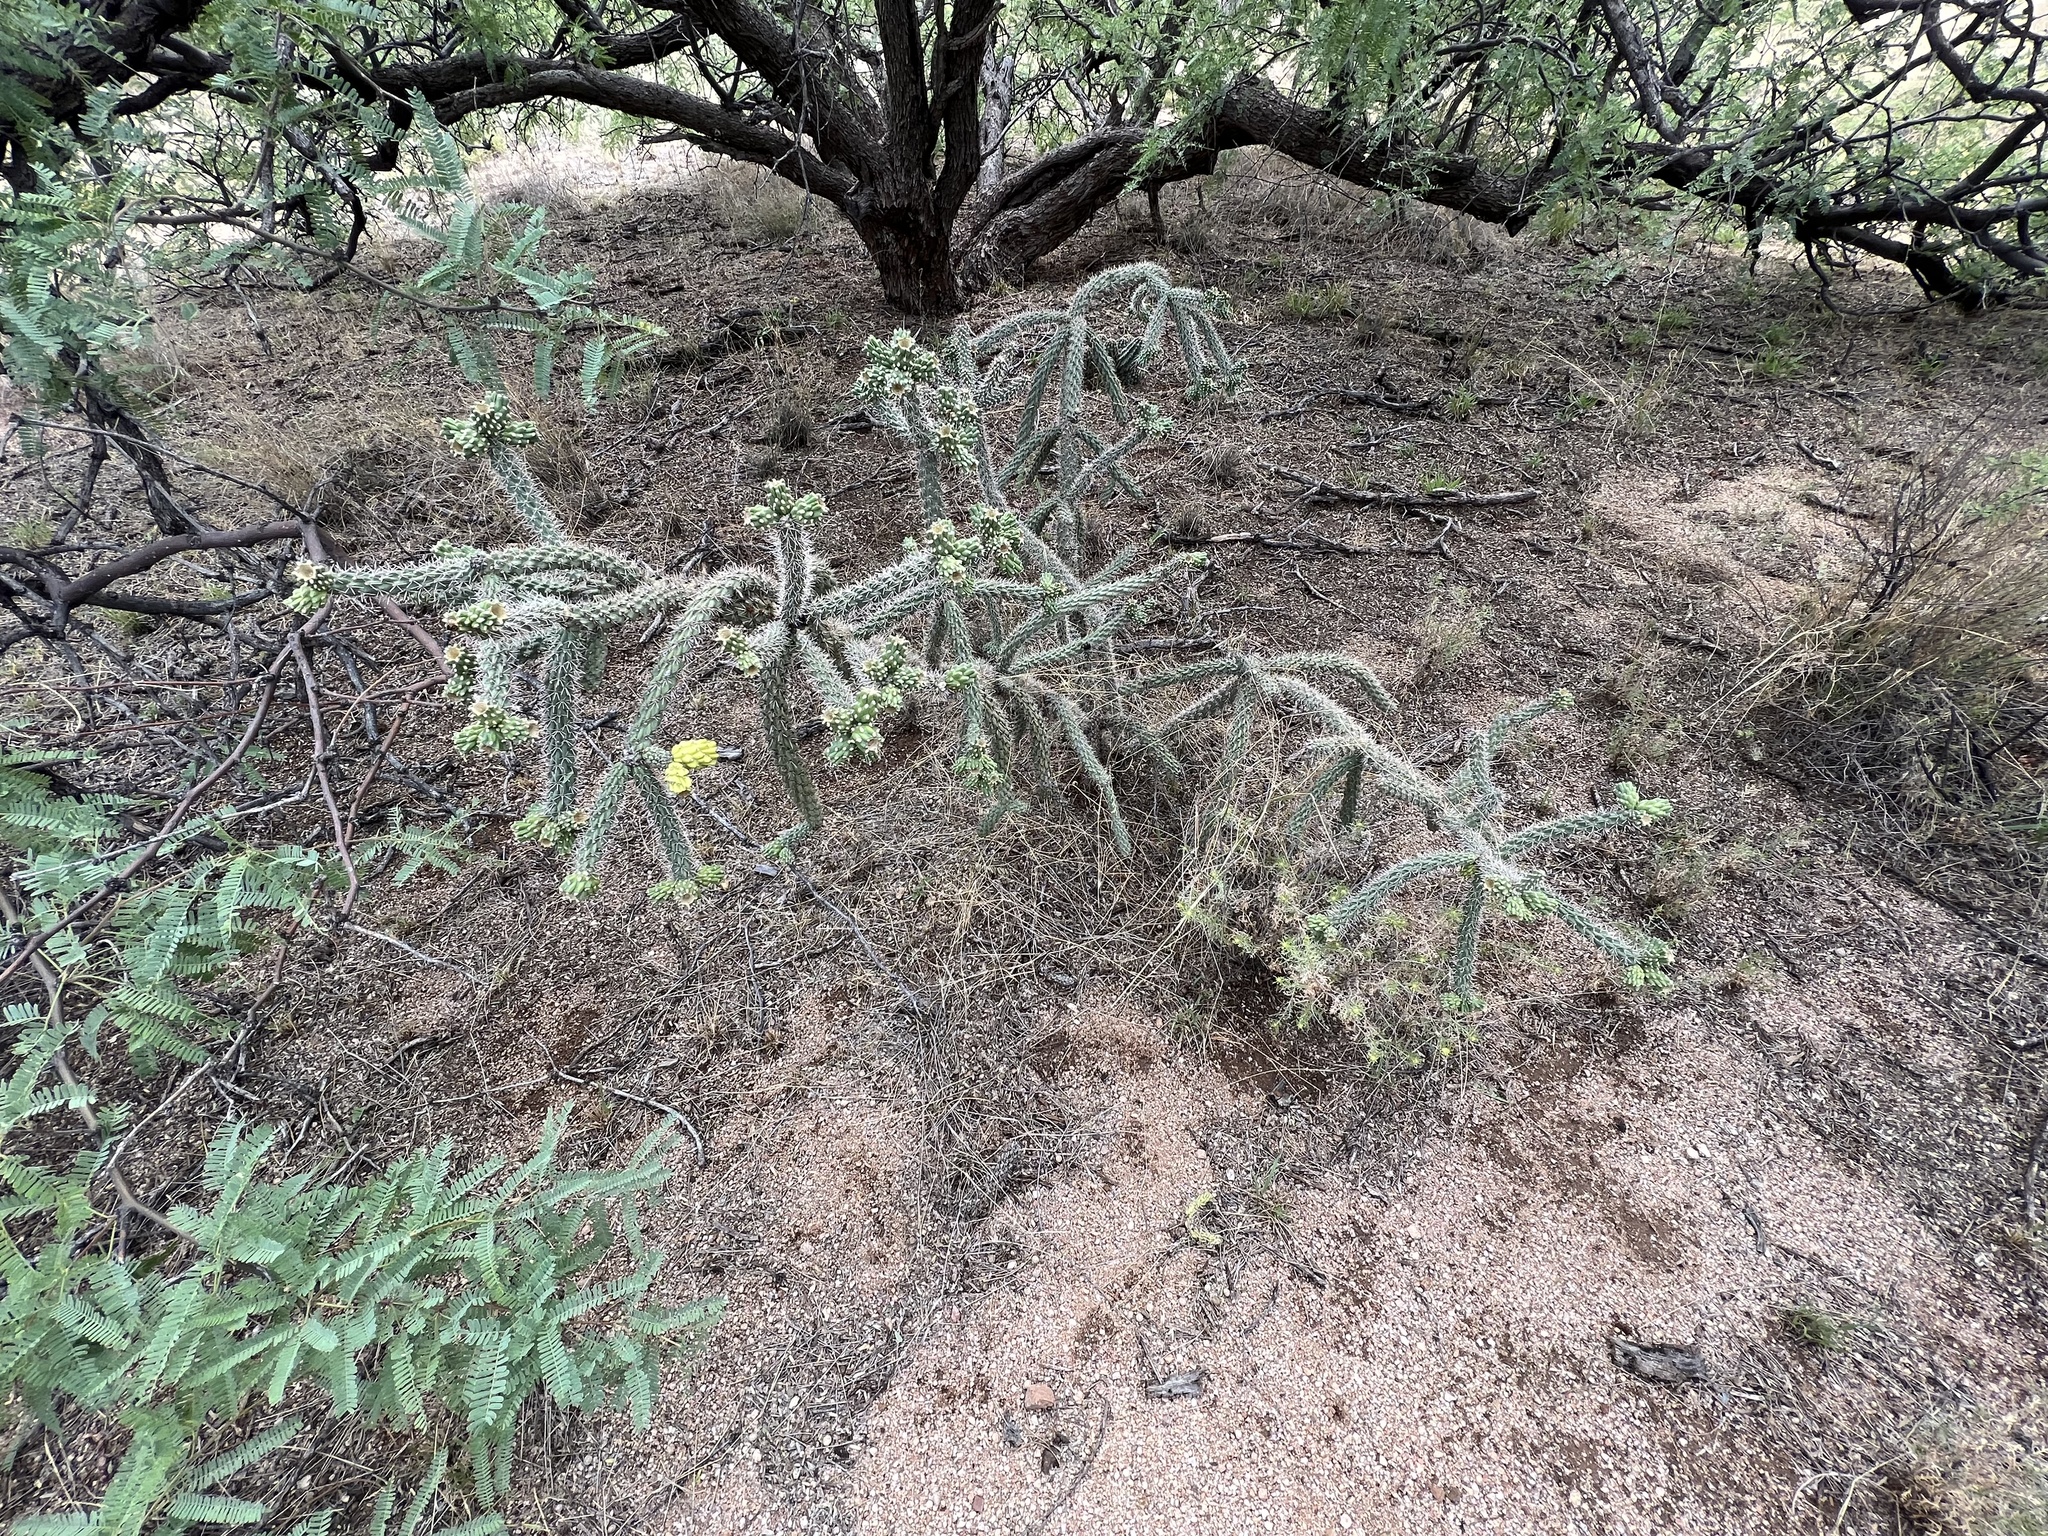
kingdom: Plantae
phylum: Tracheophyta
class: Magnoliopsida
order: Caryophyllales
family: Cactaceae
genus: Cylindropuntia
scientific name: Cylindropuntia imbricata
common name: Candelabrum cactus
